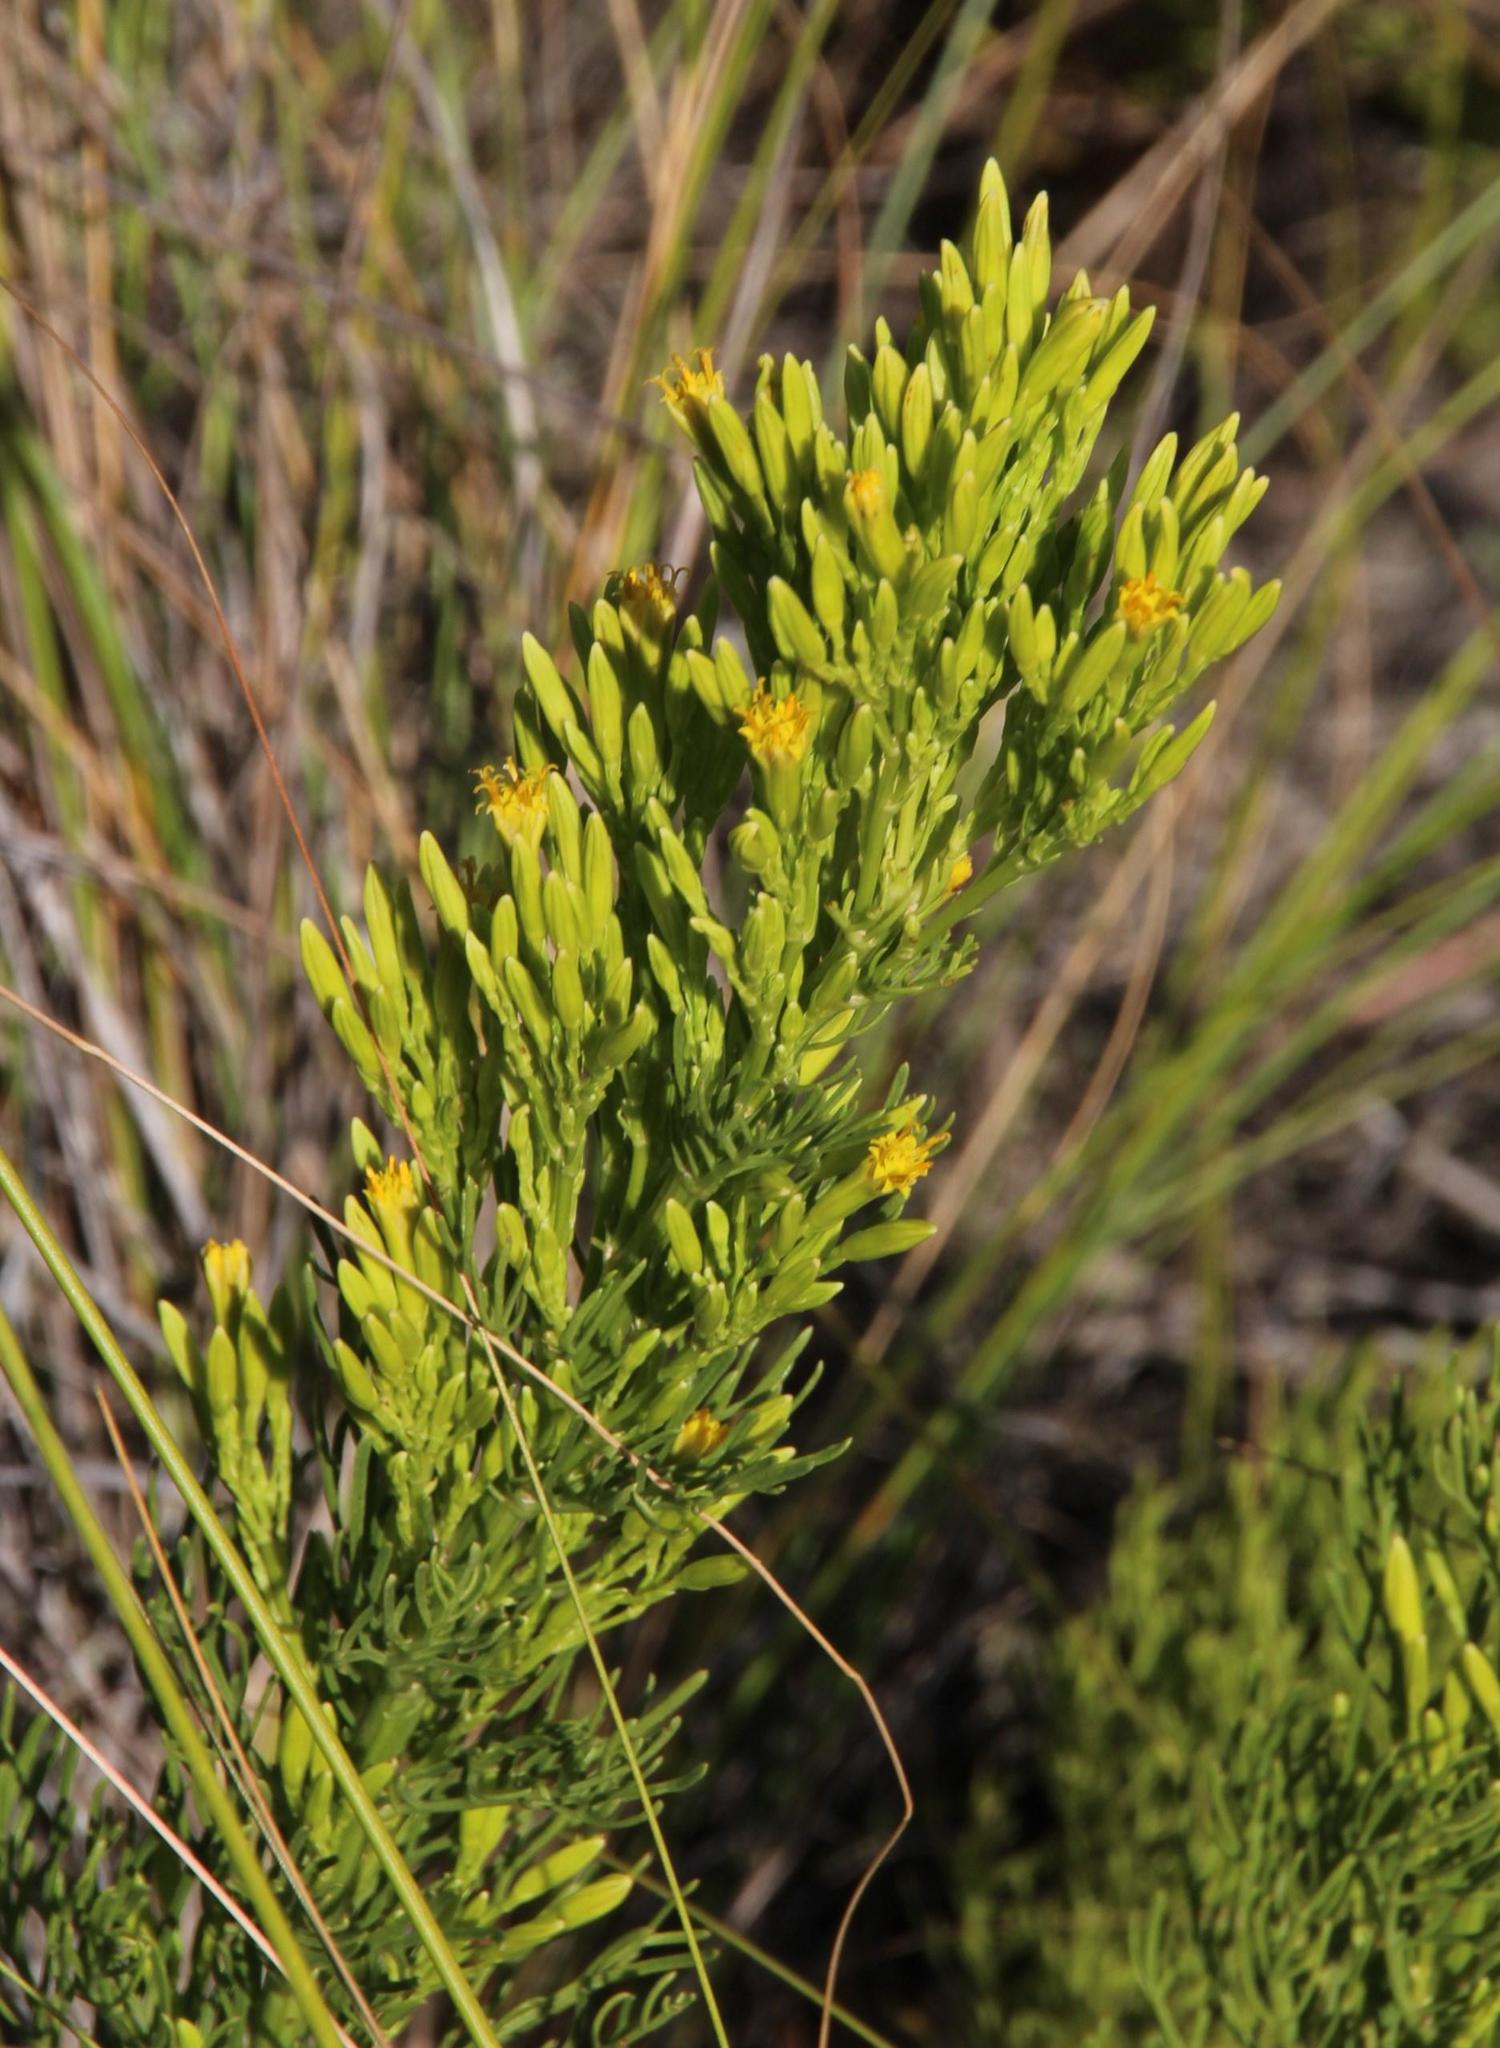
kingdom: Plantae
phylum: Tracheophyta
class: Magnoliopsida
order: Asterales
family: Asteraceae
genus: Senecio
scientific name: Senecio bipinnatus
